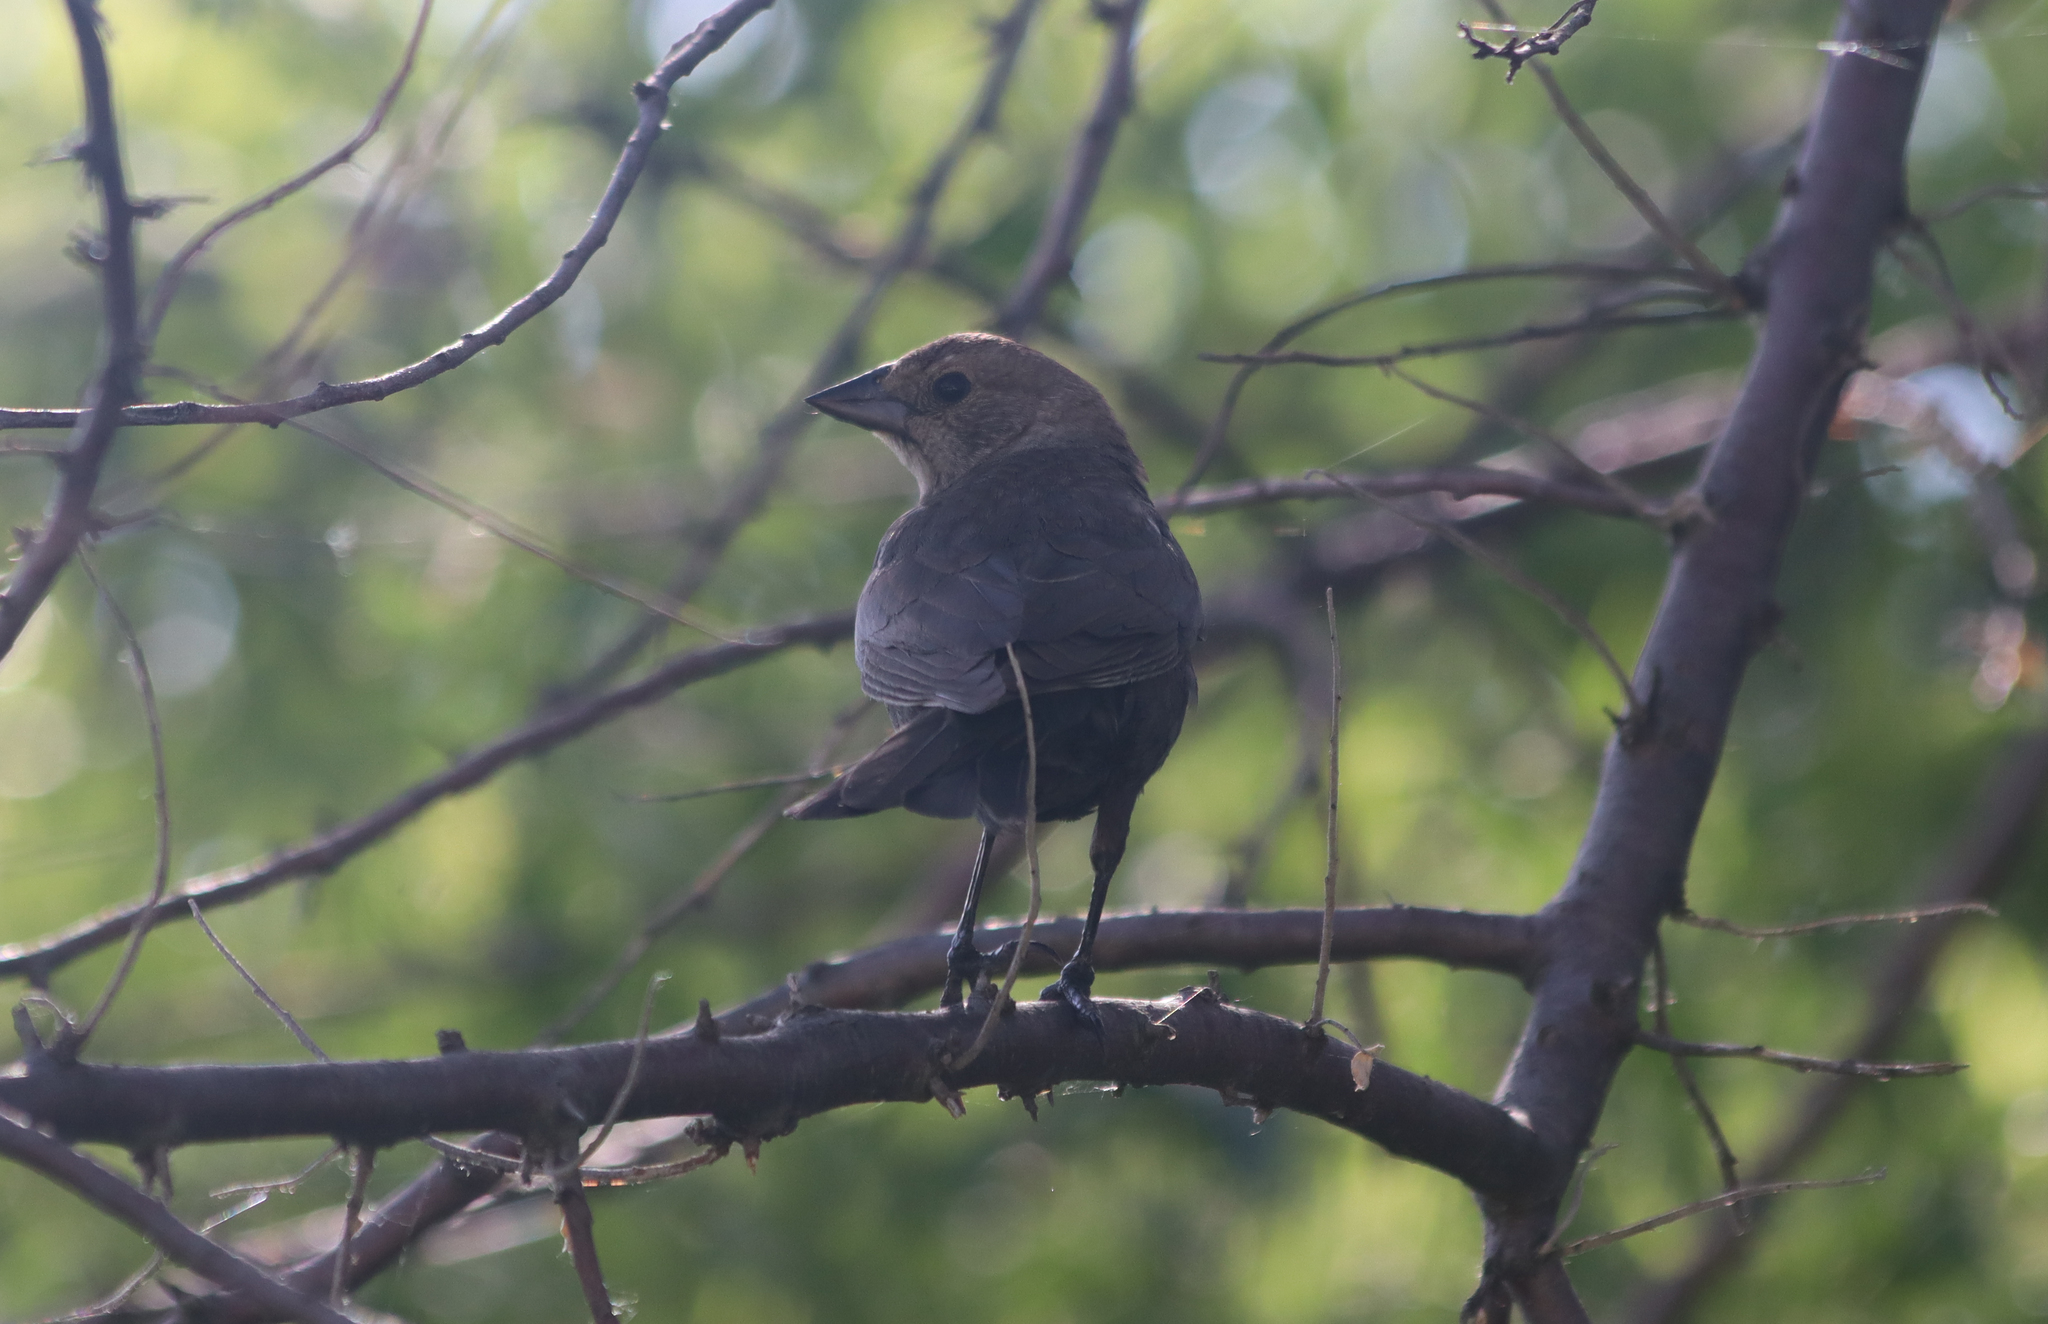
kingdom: Animalia
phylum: Chordata
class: Aves
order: Passeriformes
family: Icteridae
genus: Molothrus
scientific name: Molothrus ater
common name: Brown-headed cowbird
